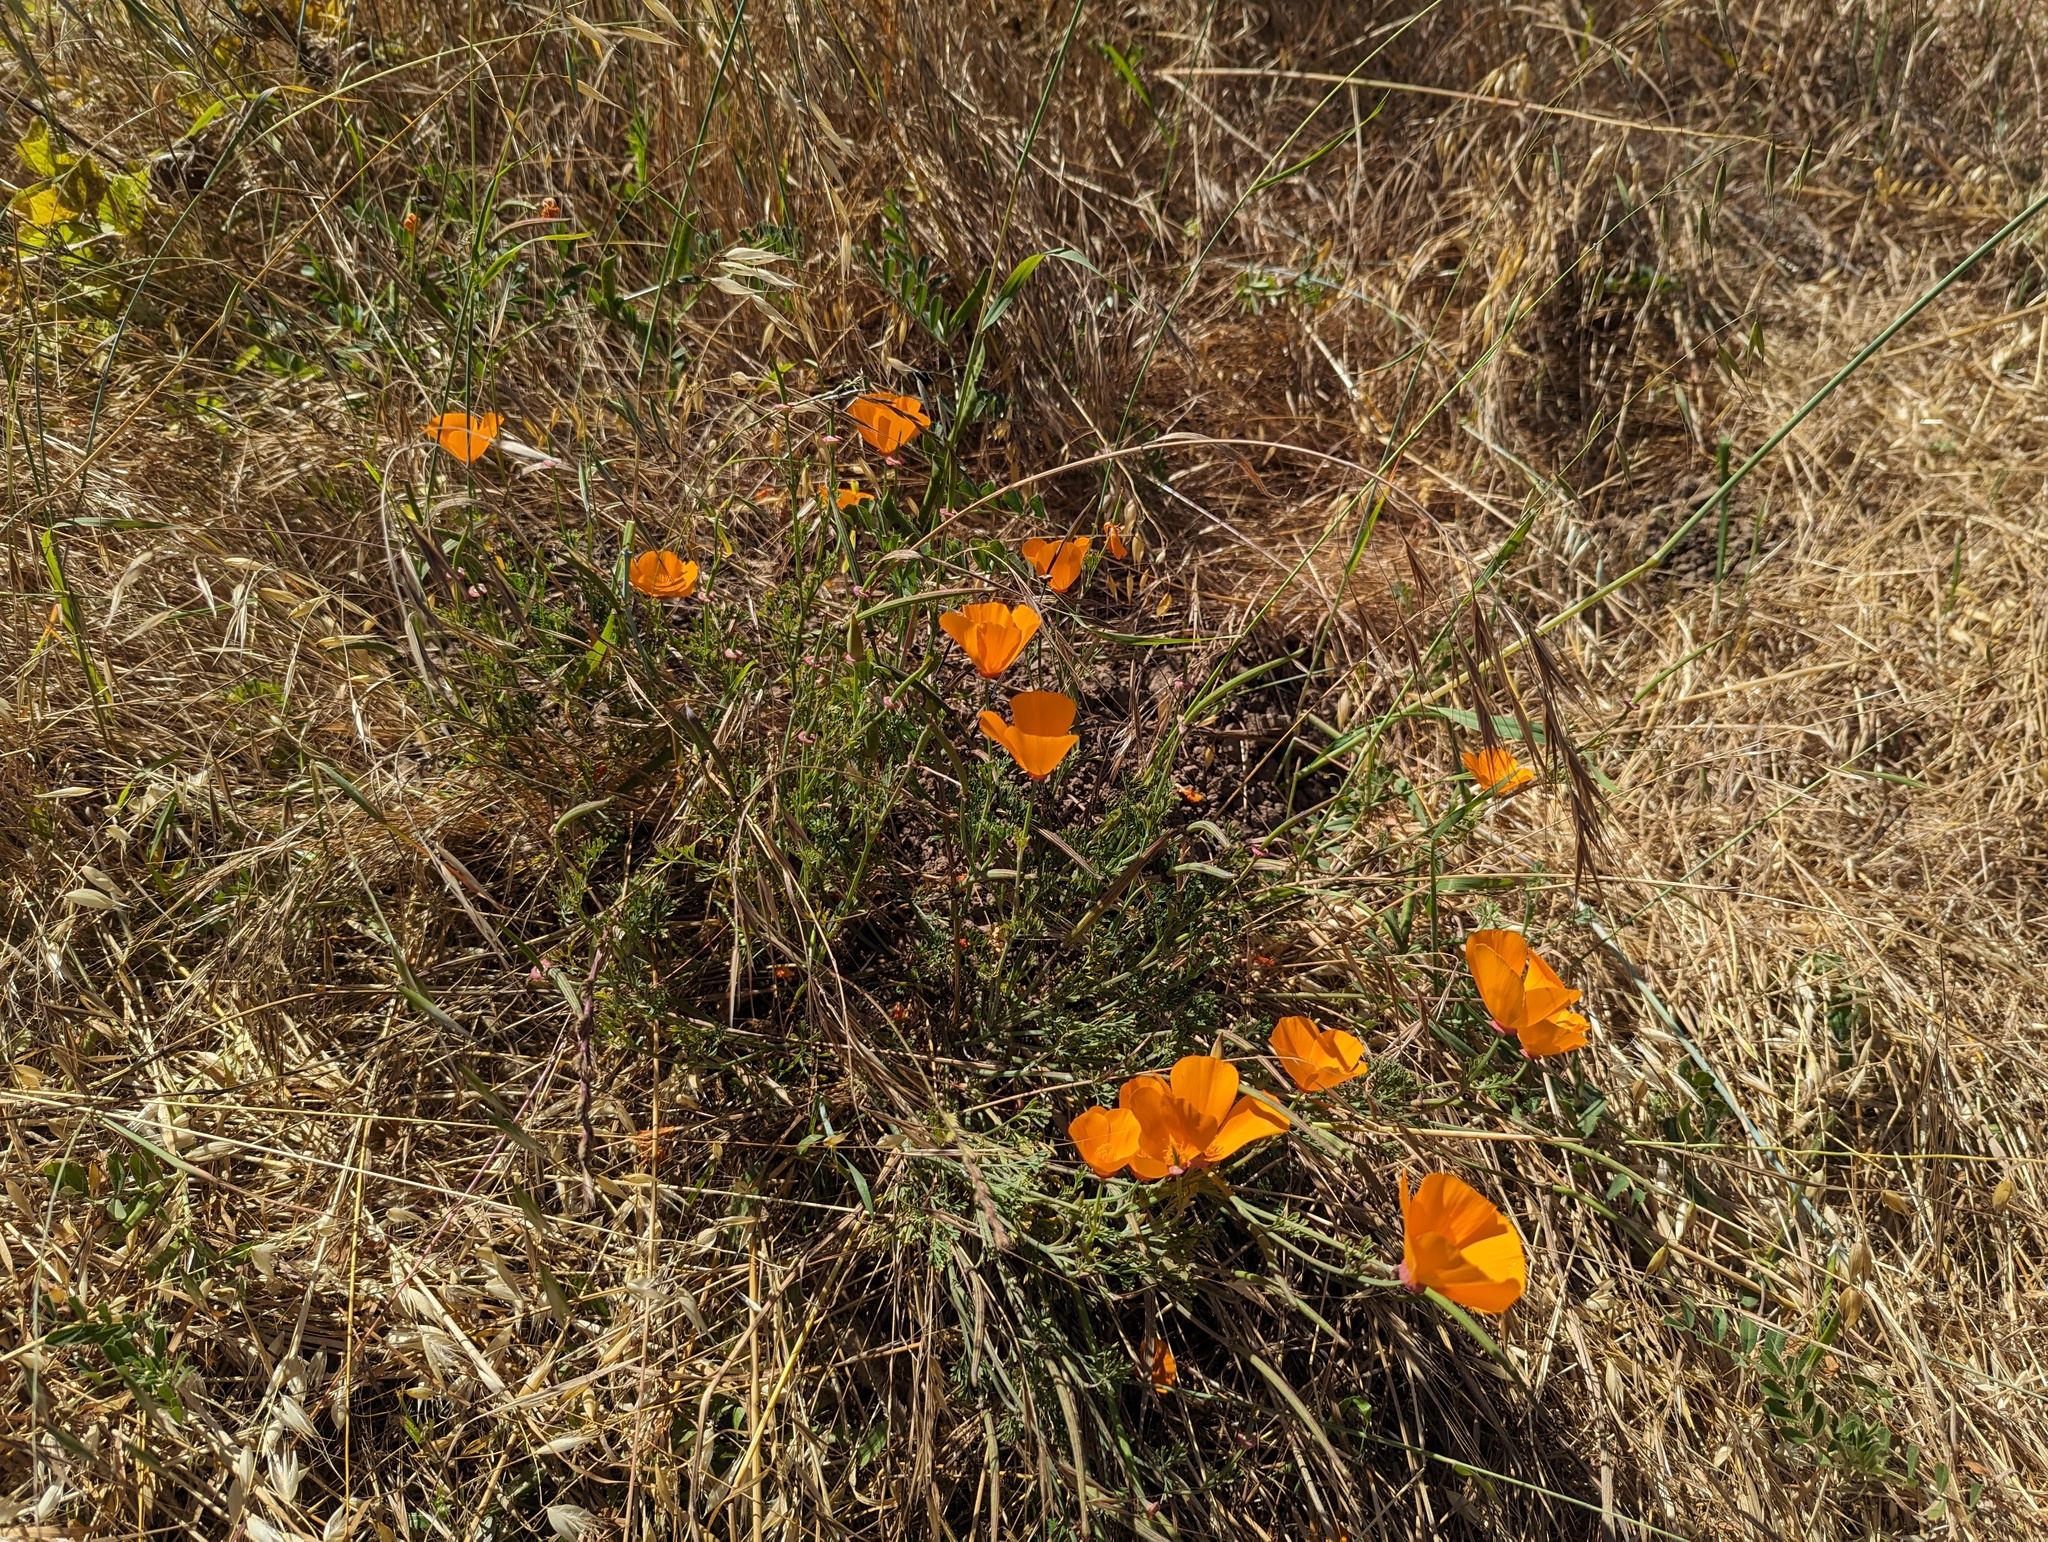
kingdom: Plantae
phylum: Tracheophyta
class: Magnoliopsida
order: Ranunculales
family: Papaveraceae
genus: Eschscholzia
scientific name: Eschscholzia californica
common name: California poppy
